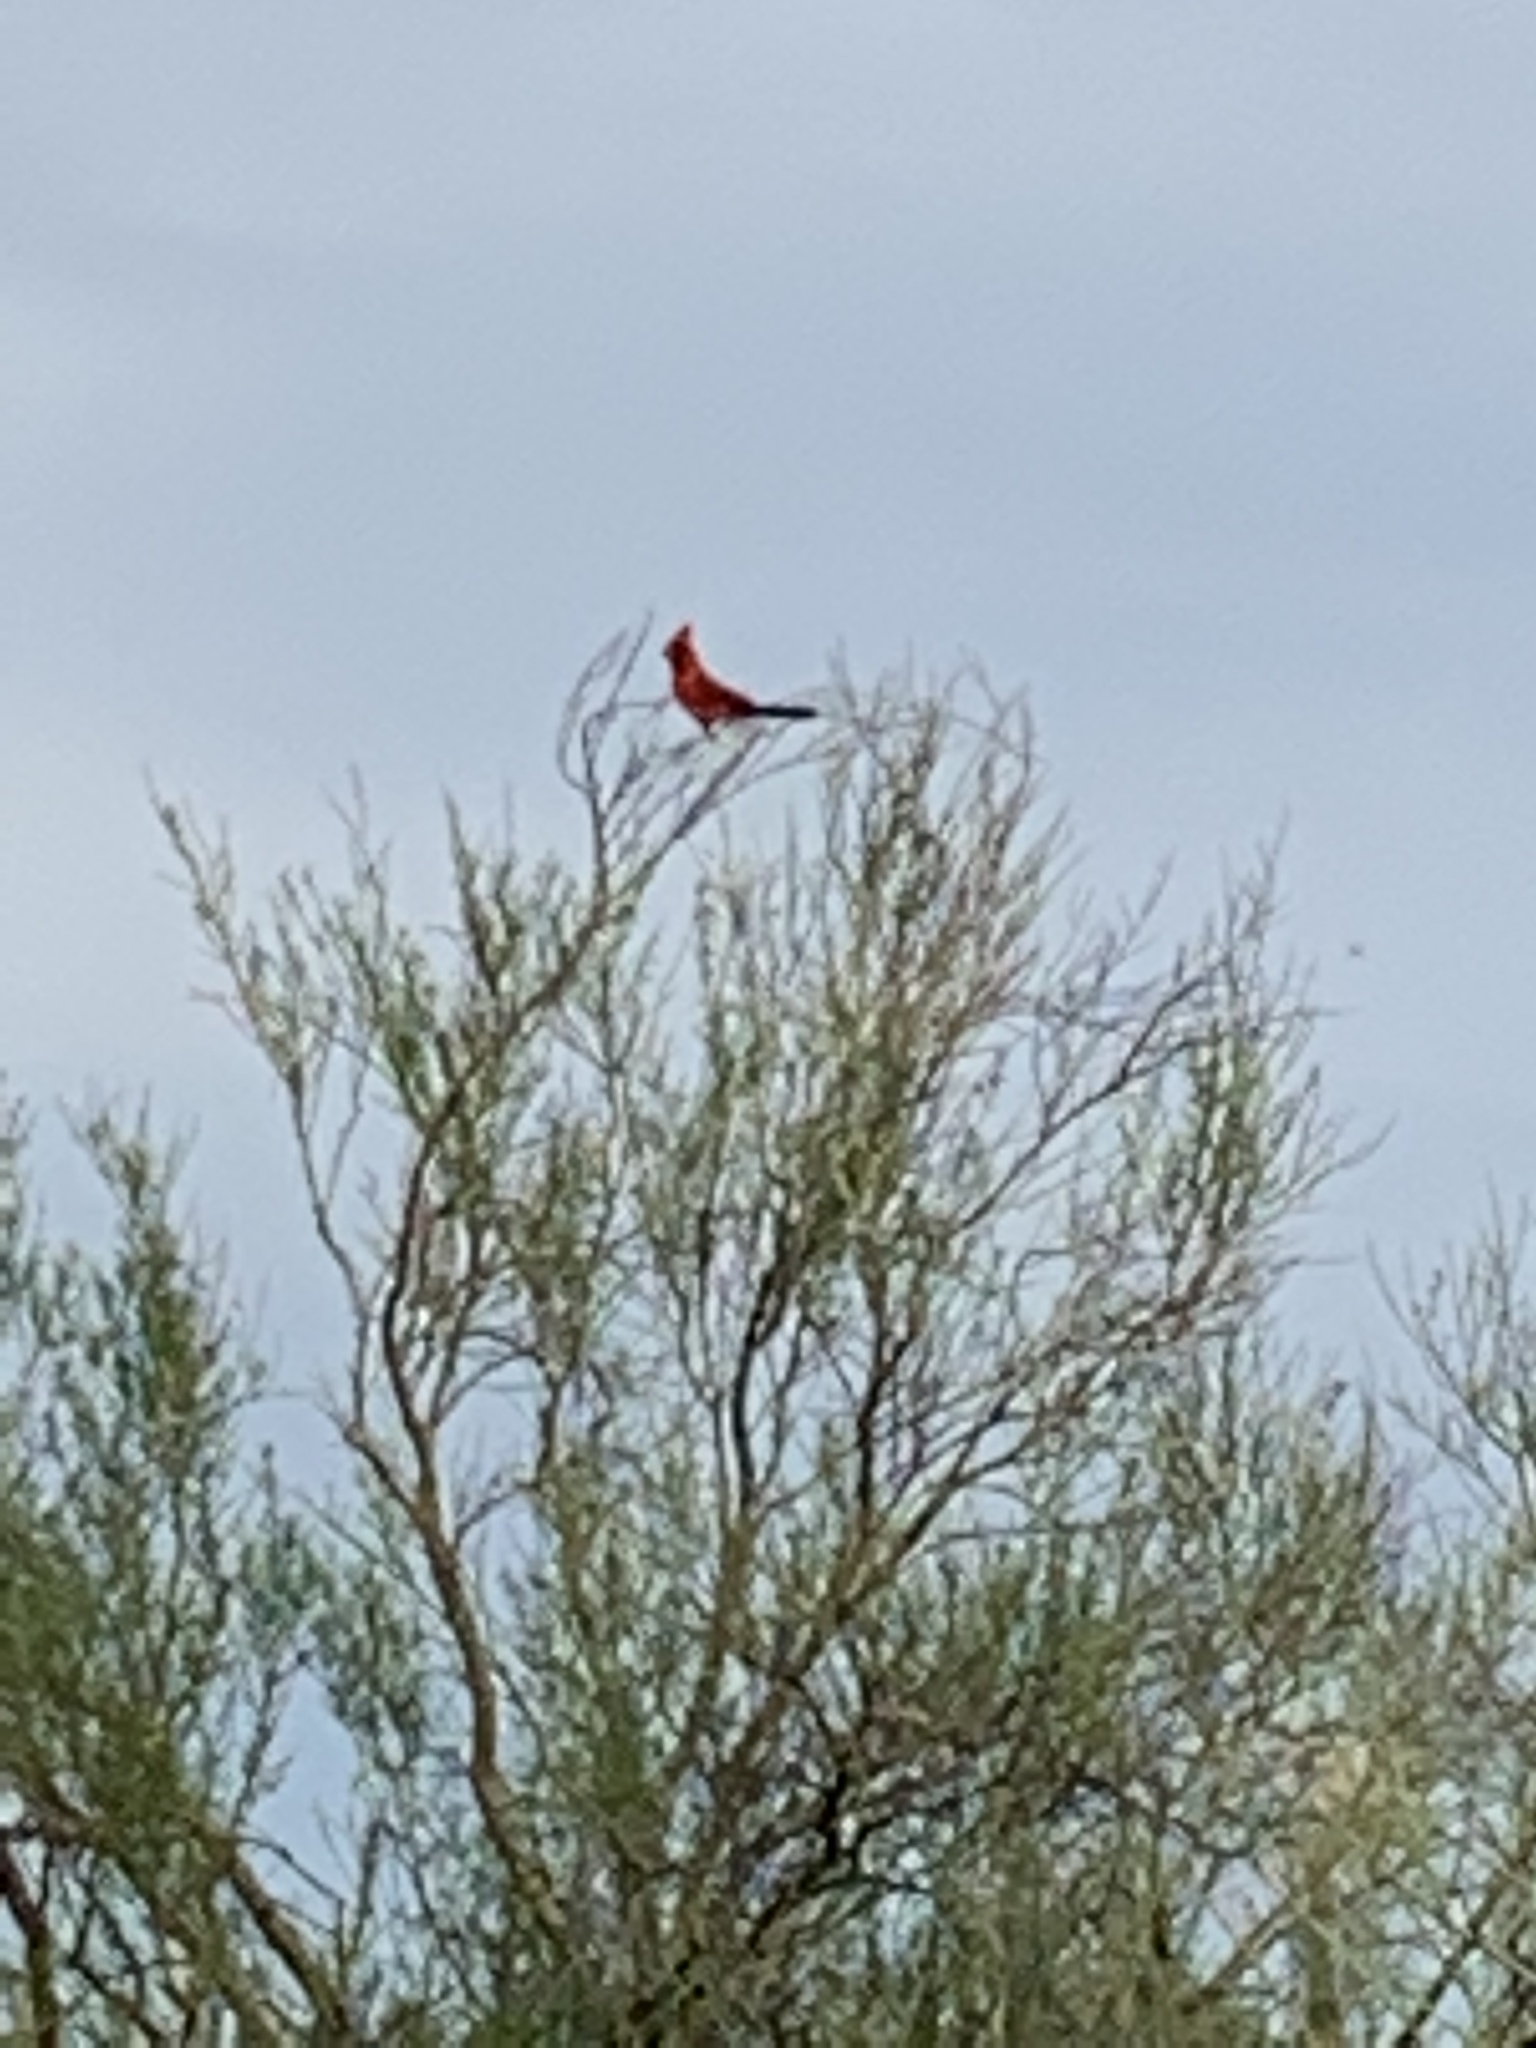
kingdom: Animalia
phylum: Chordata
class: Aves
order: Passeriformes
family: Cardinalidae
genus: Cardinalis
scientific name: Cardinalis cardinalis
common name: Northern cardinal
